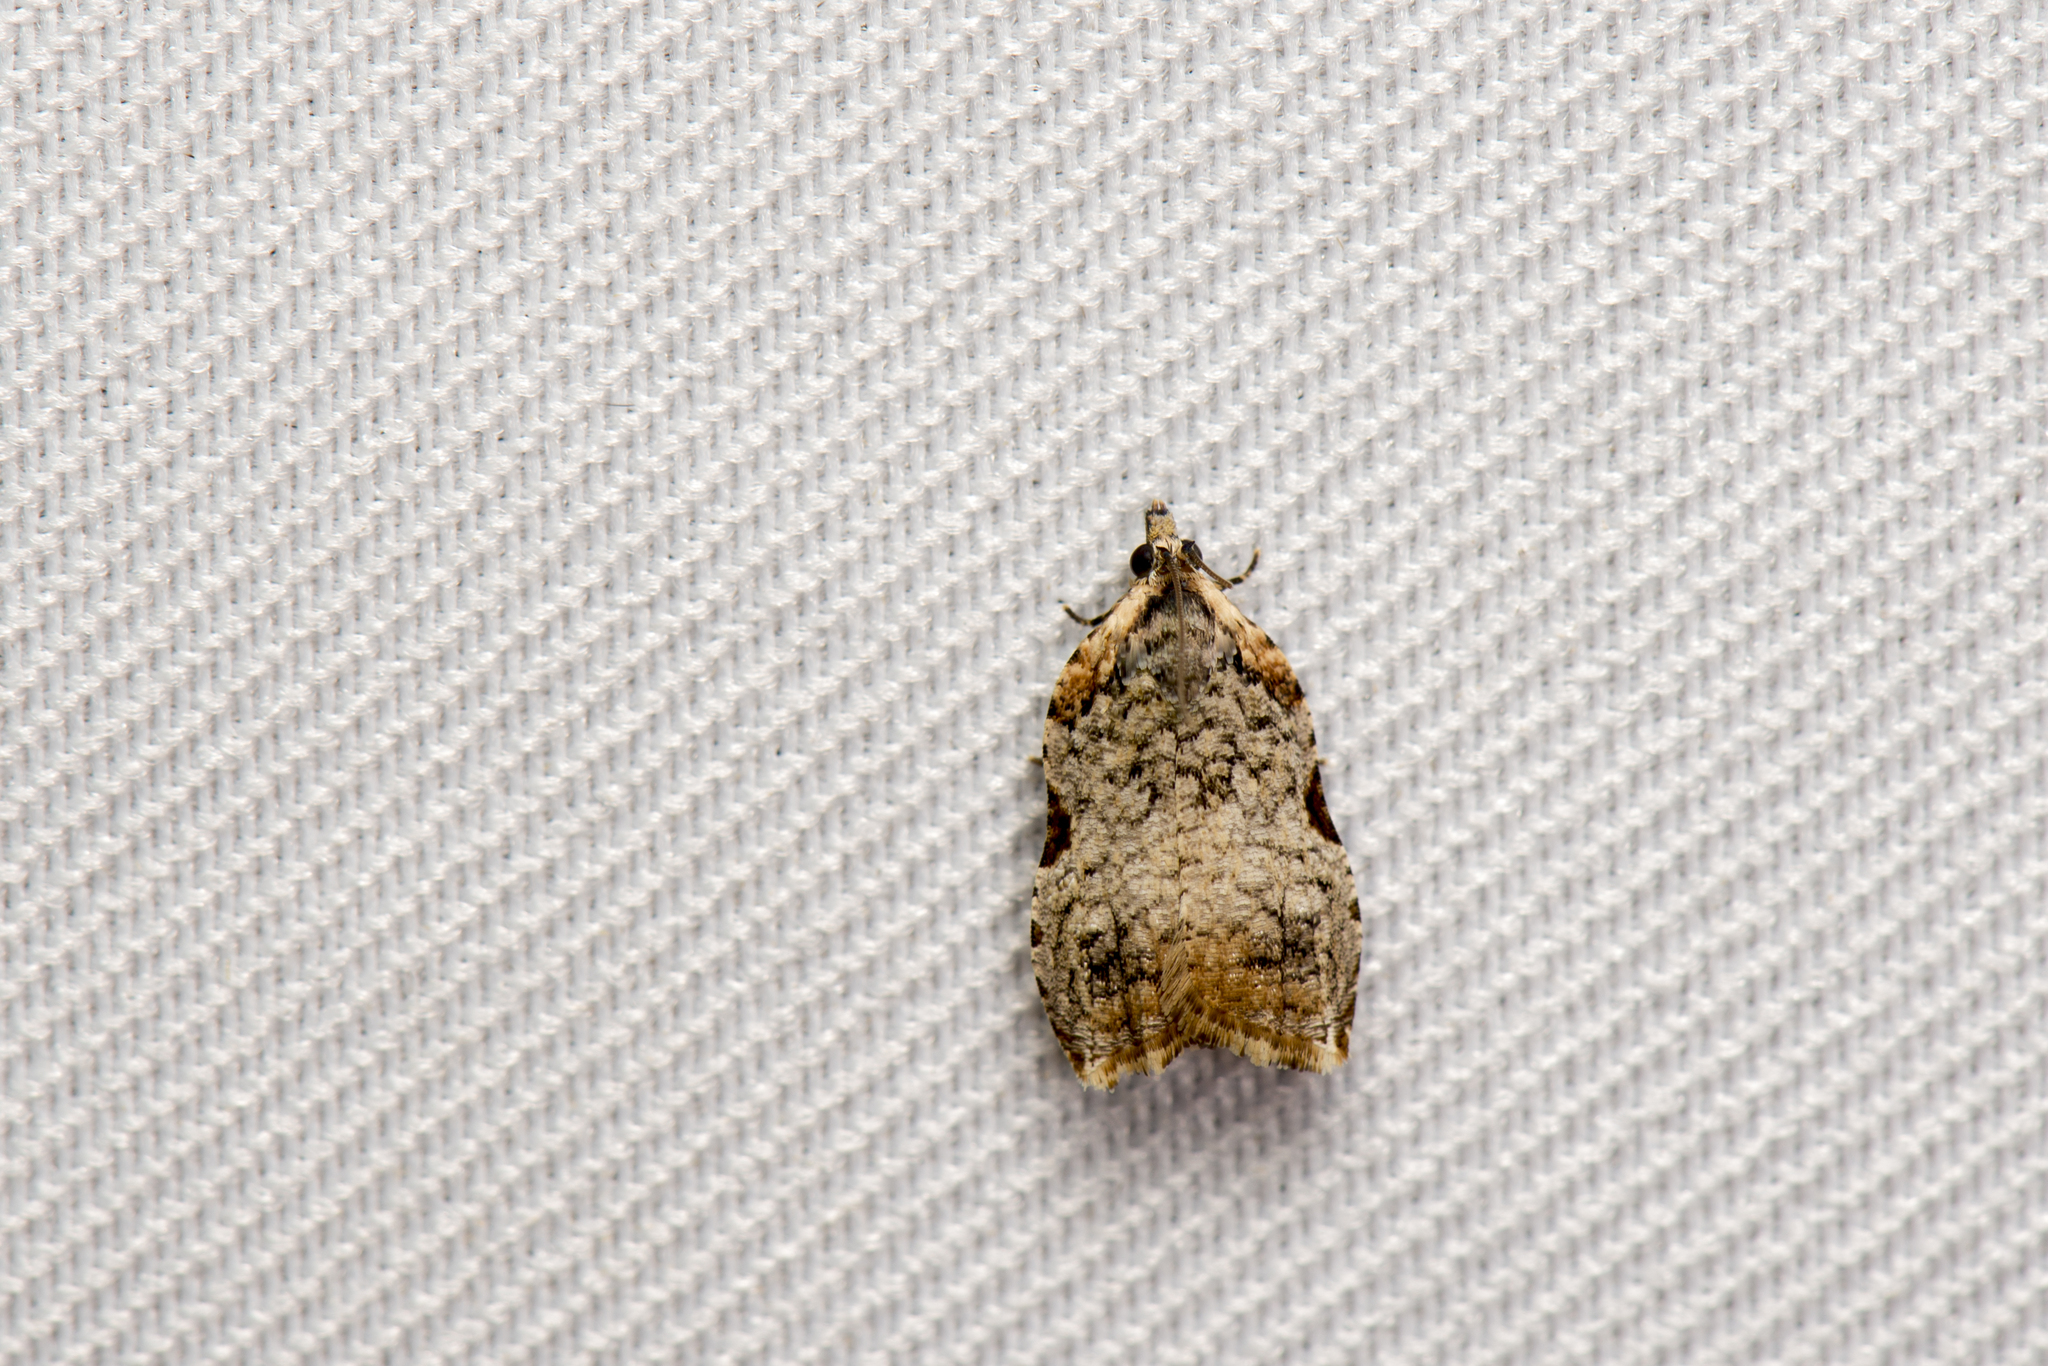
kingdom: Animalia
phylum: Arthropoda
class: Insecta
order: Lepidoptera
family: Tortricidae
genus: Thysanocrepis
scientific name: Thysanocrepis crossota
